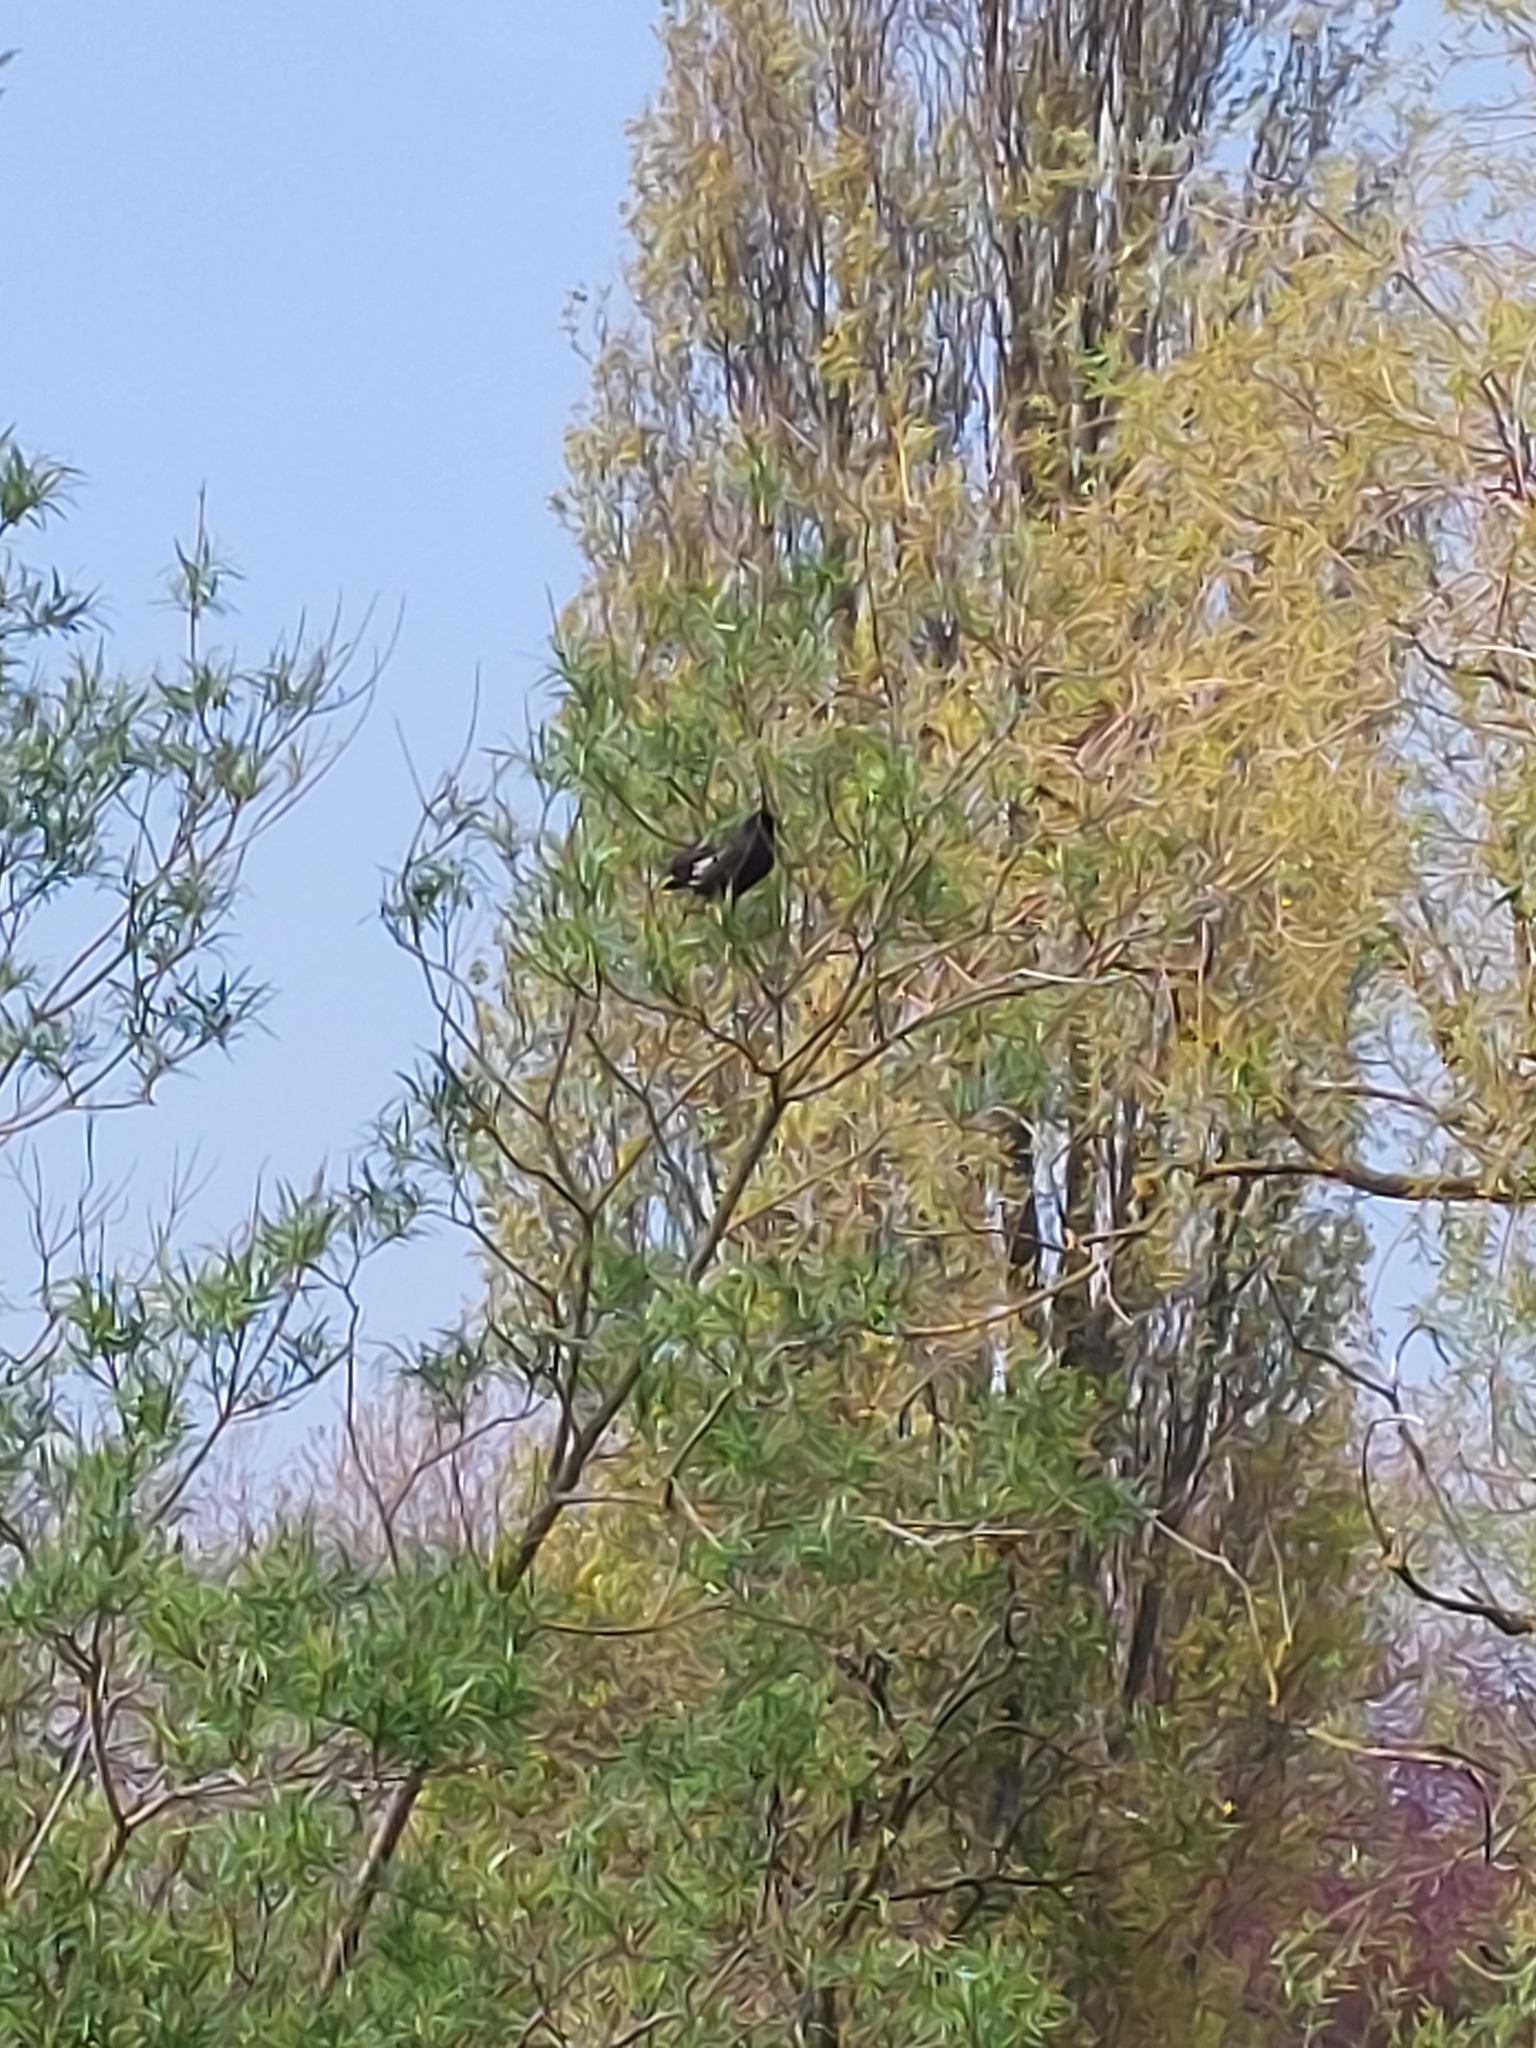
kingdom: Animalia
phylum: Chordata
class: Aves
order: Gruiformes
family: Rallidae
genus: Gallinula
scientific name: Gallinula chloropus
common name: Common moorhen
